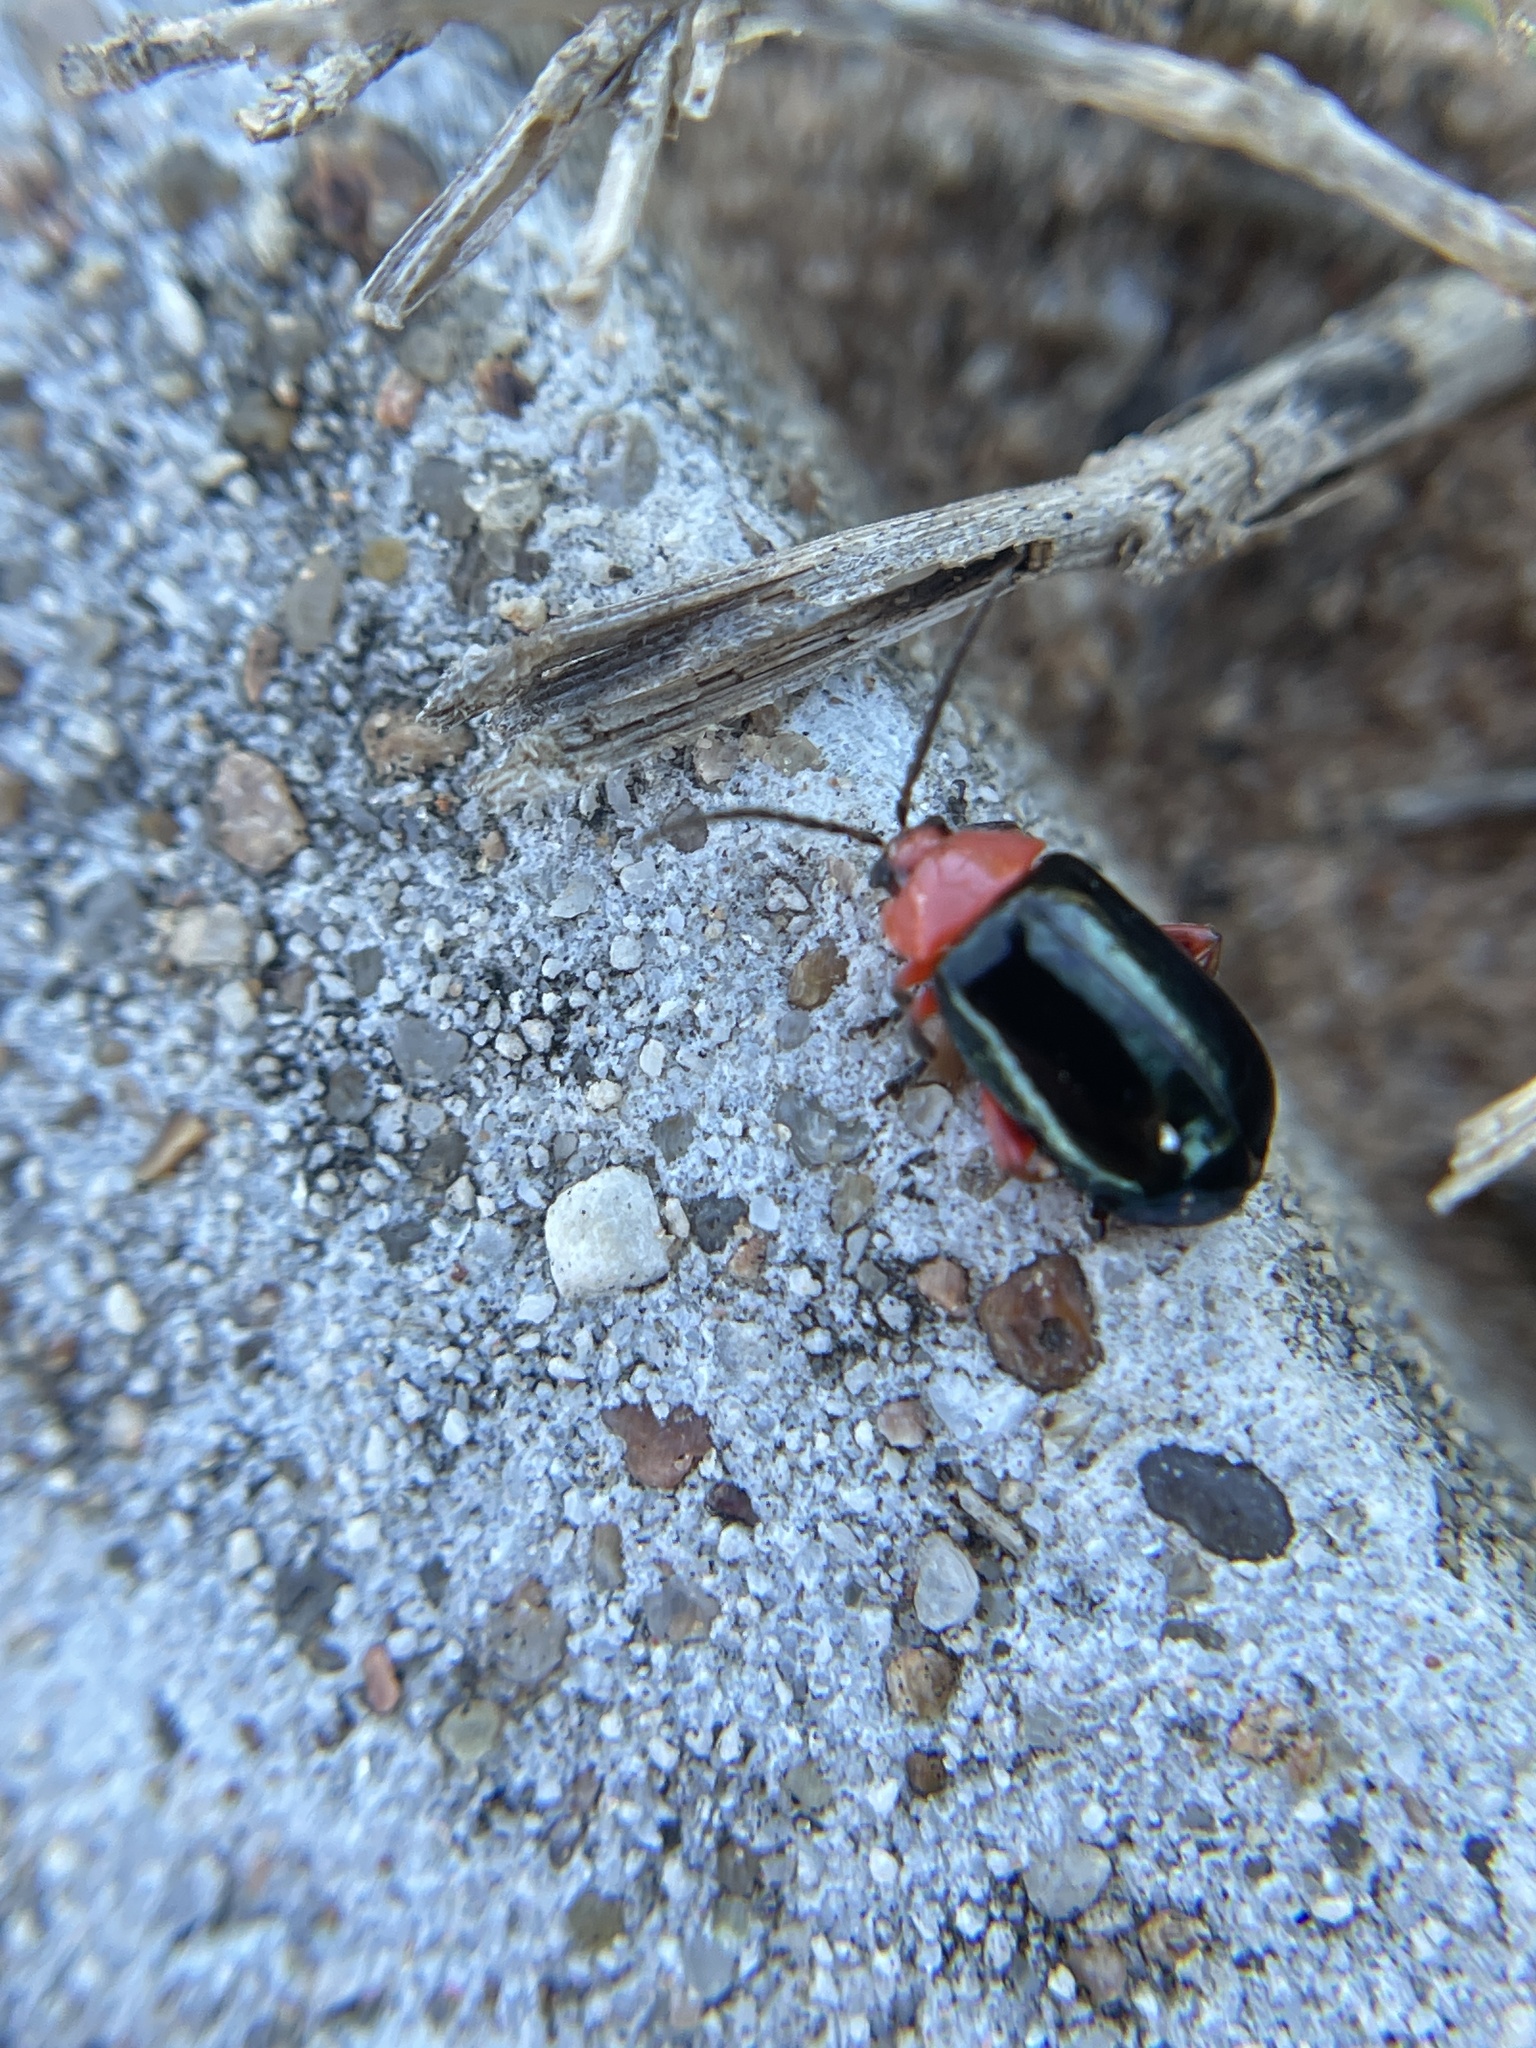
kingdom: Animalia
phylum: Arthropoda
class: Insecta
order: Coleoptera
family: Chrysomelidae
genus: Asphaera
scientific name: Asphaera lustrans
